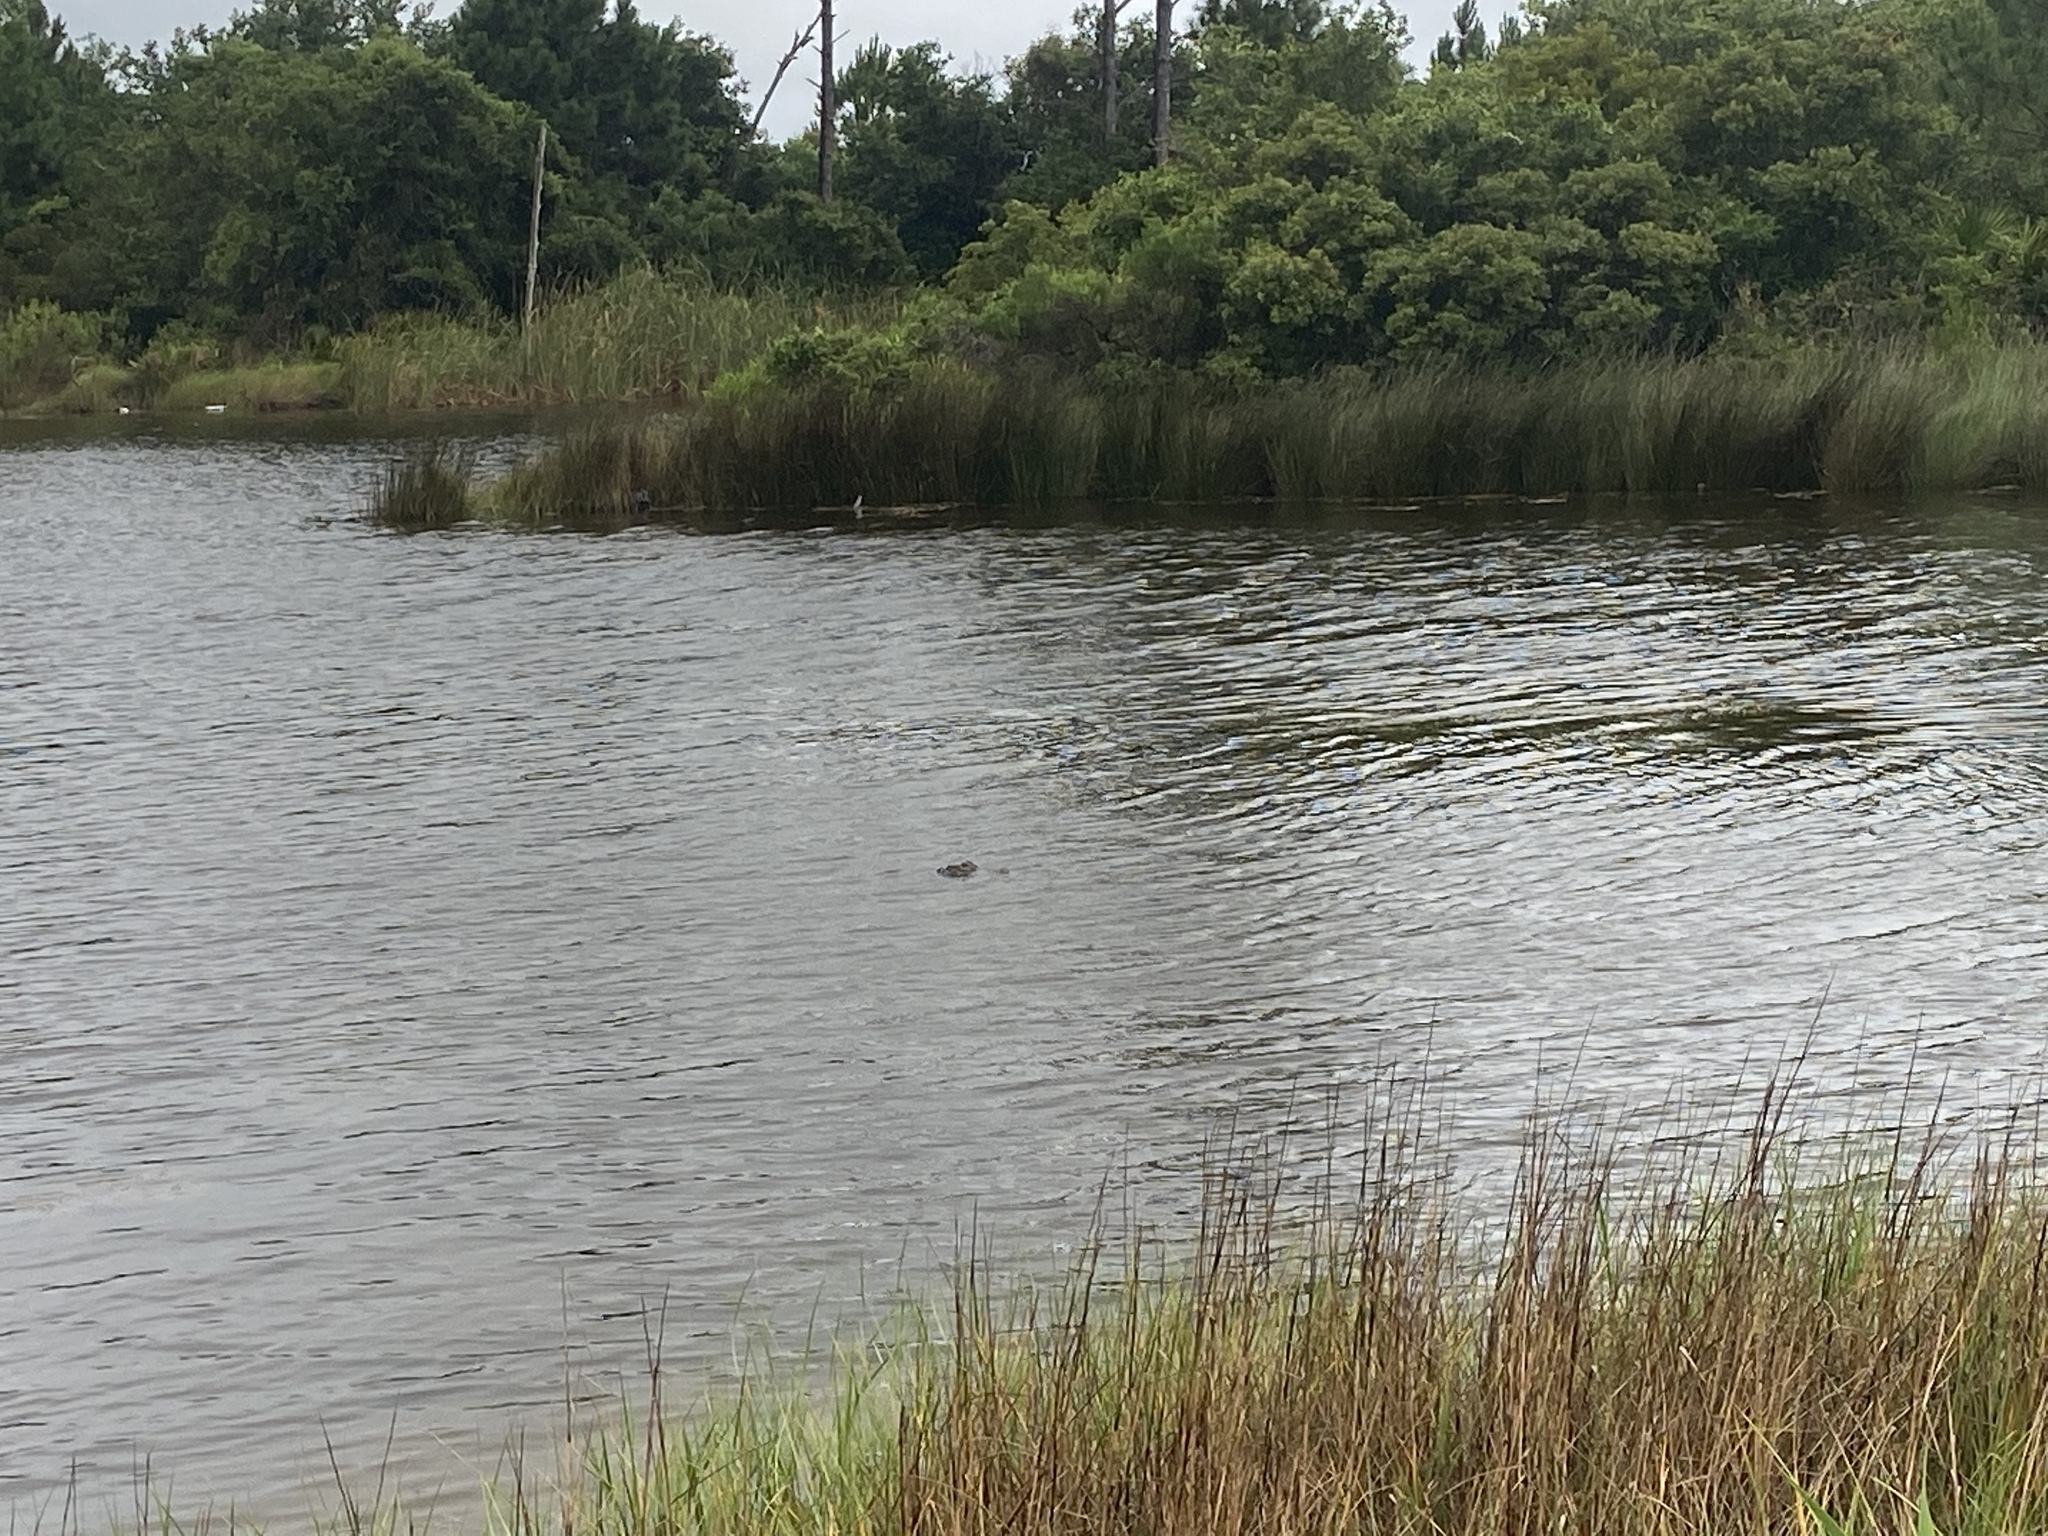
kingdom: Animalia
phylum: Chordata
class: Crocodylia
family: Alligatoridae
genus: Alligator
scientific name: Alligator mississippiensis
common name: American alligator
